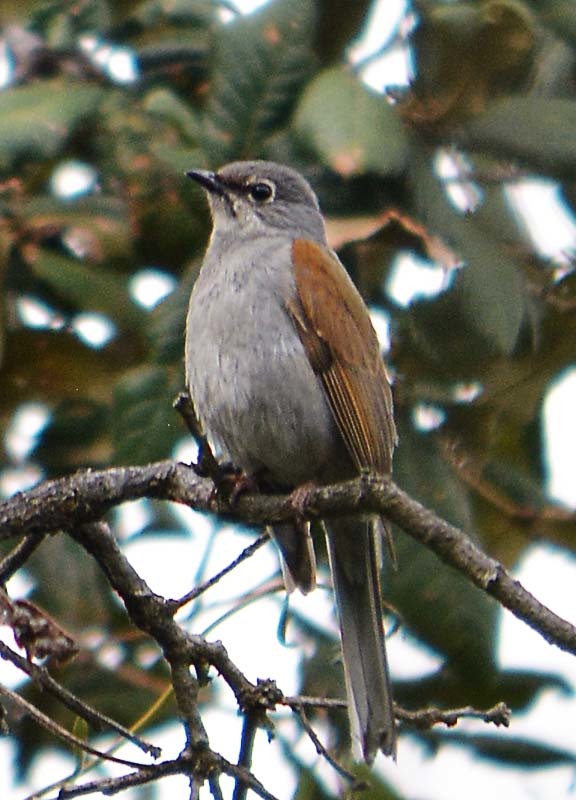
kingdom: Animalia
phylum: Chordata
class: Aves
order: Passeriformes
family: Turdidae
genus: Myadestes
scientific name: Myadestes occidentalis
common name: Brown-backed solitaire
